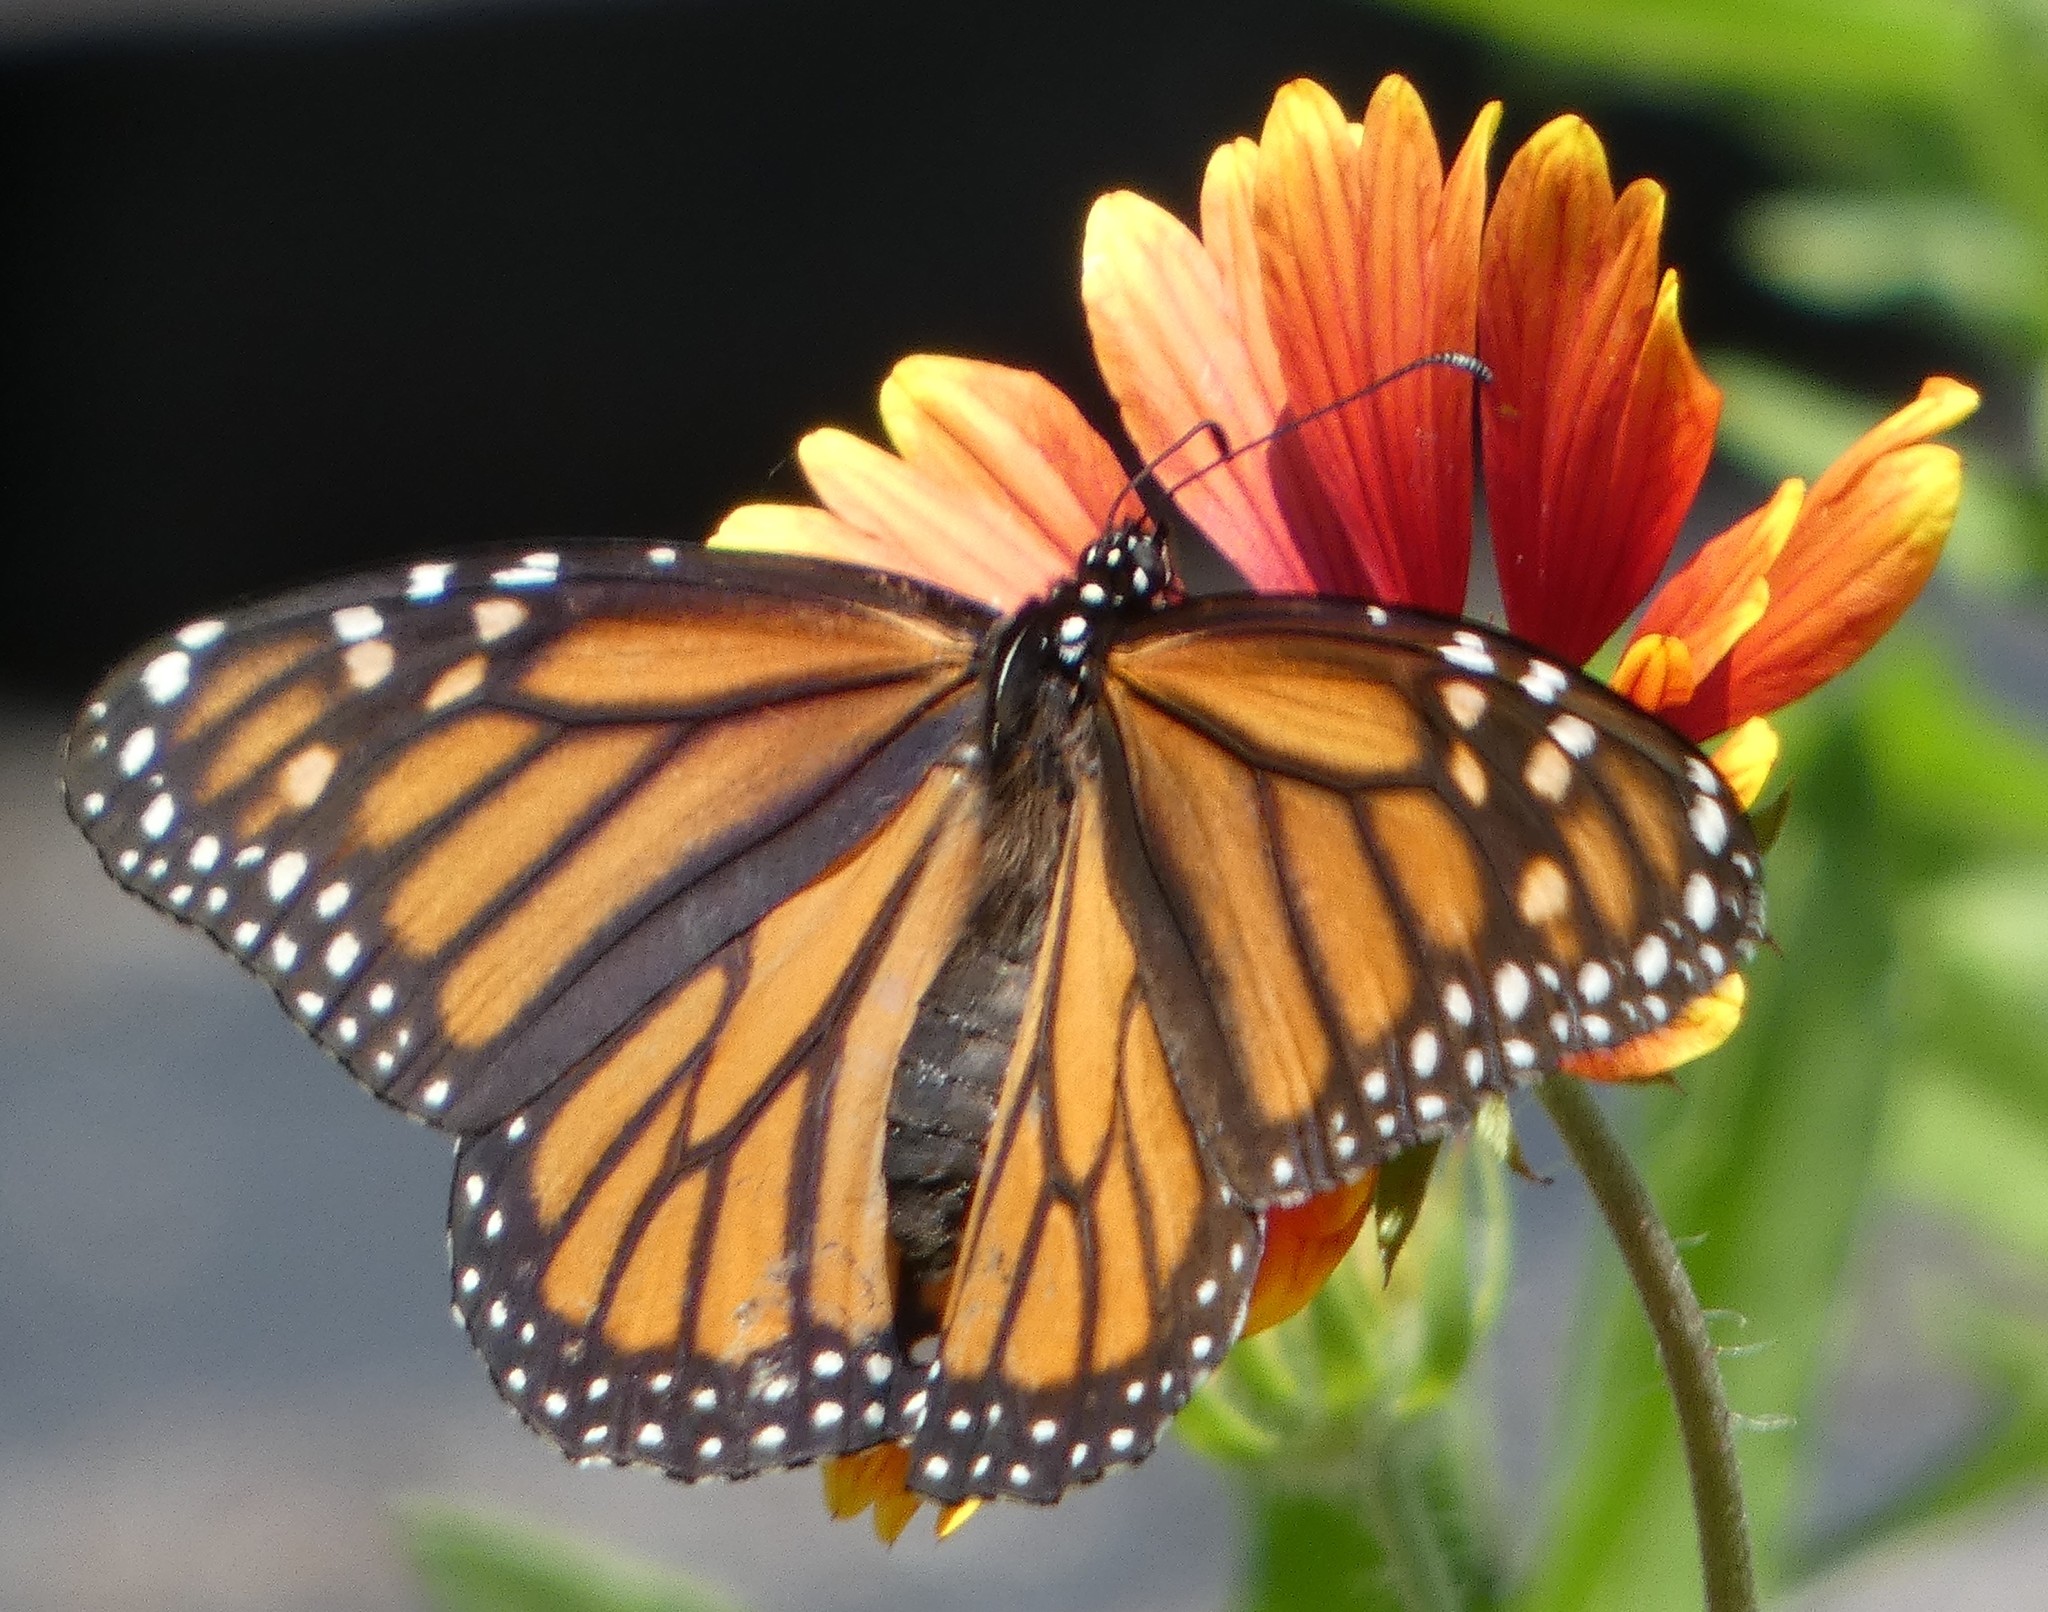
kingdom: Animalia
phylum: Arthropoda
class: Insecta
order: Lepidoptera
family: Nymphalidae
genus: Danaus
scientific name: Danaus plexippus
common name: Monarch
